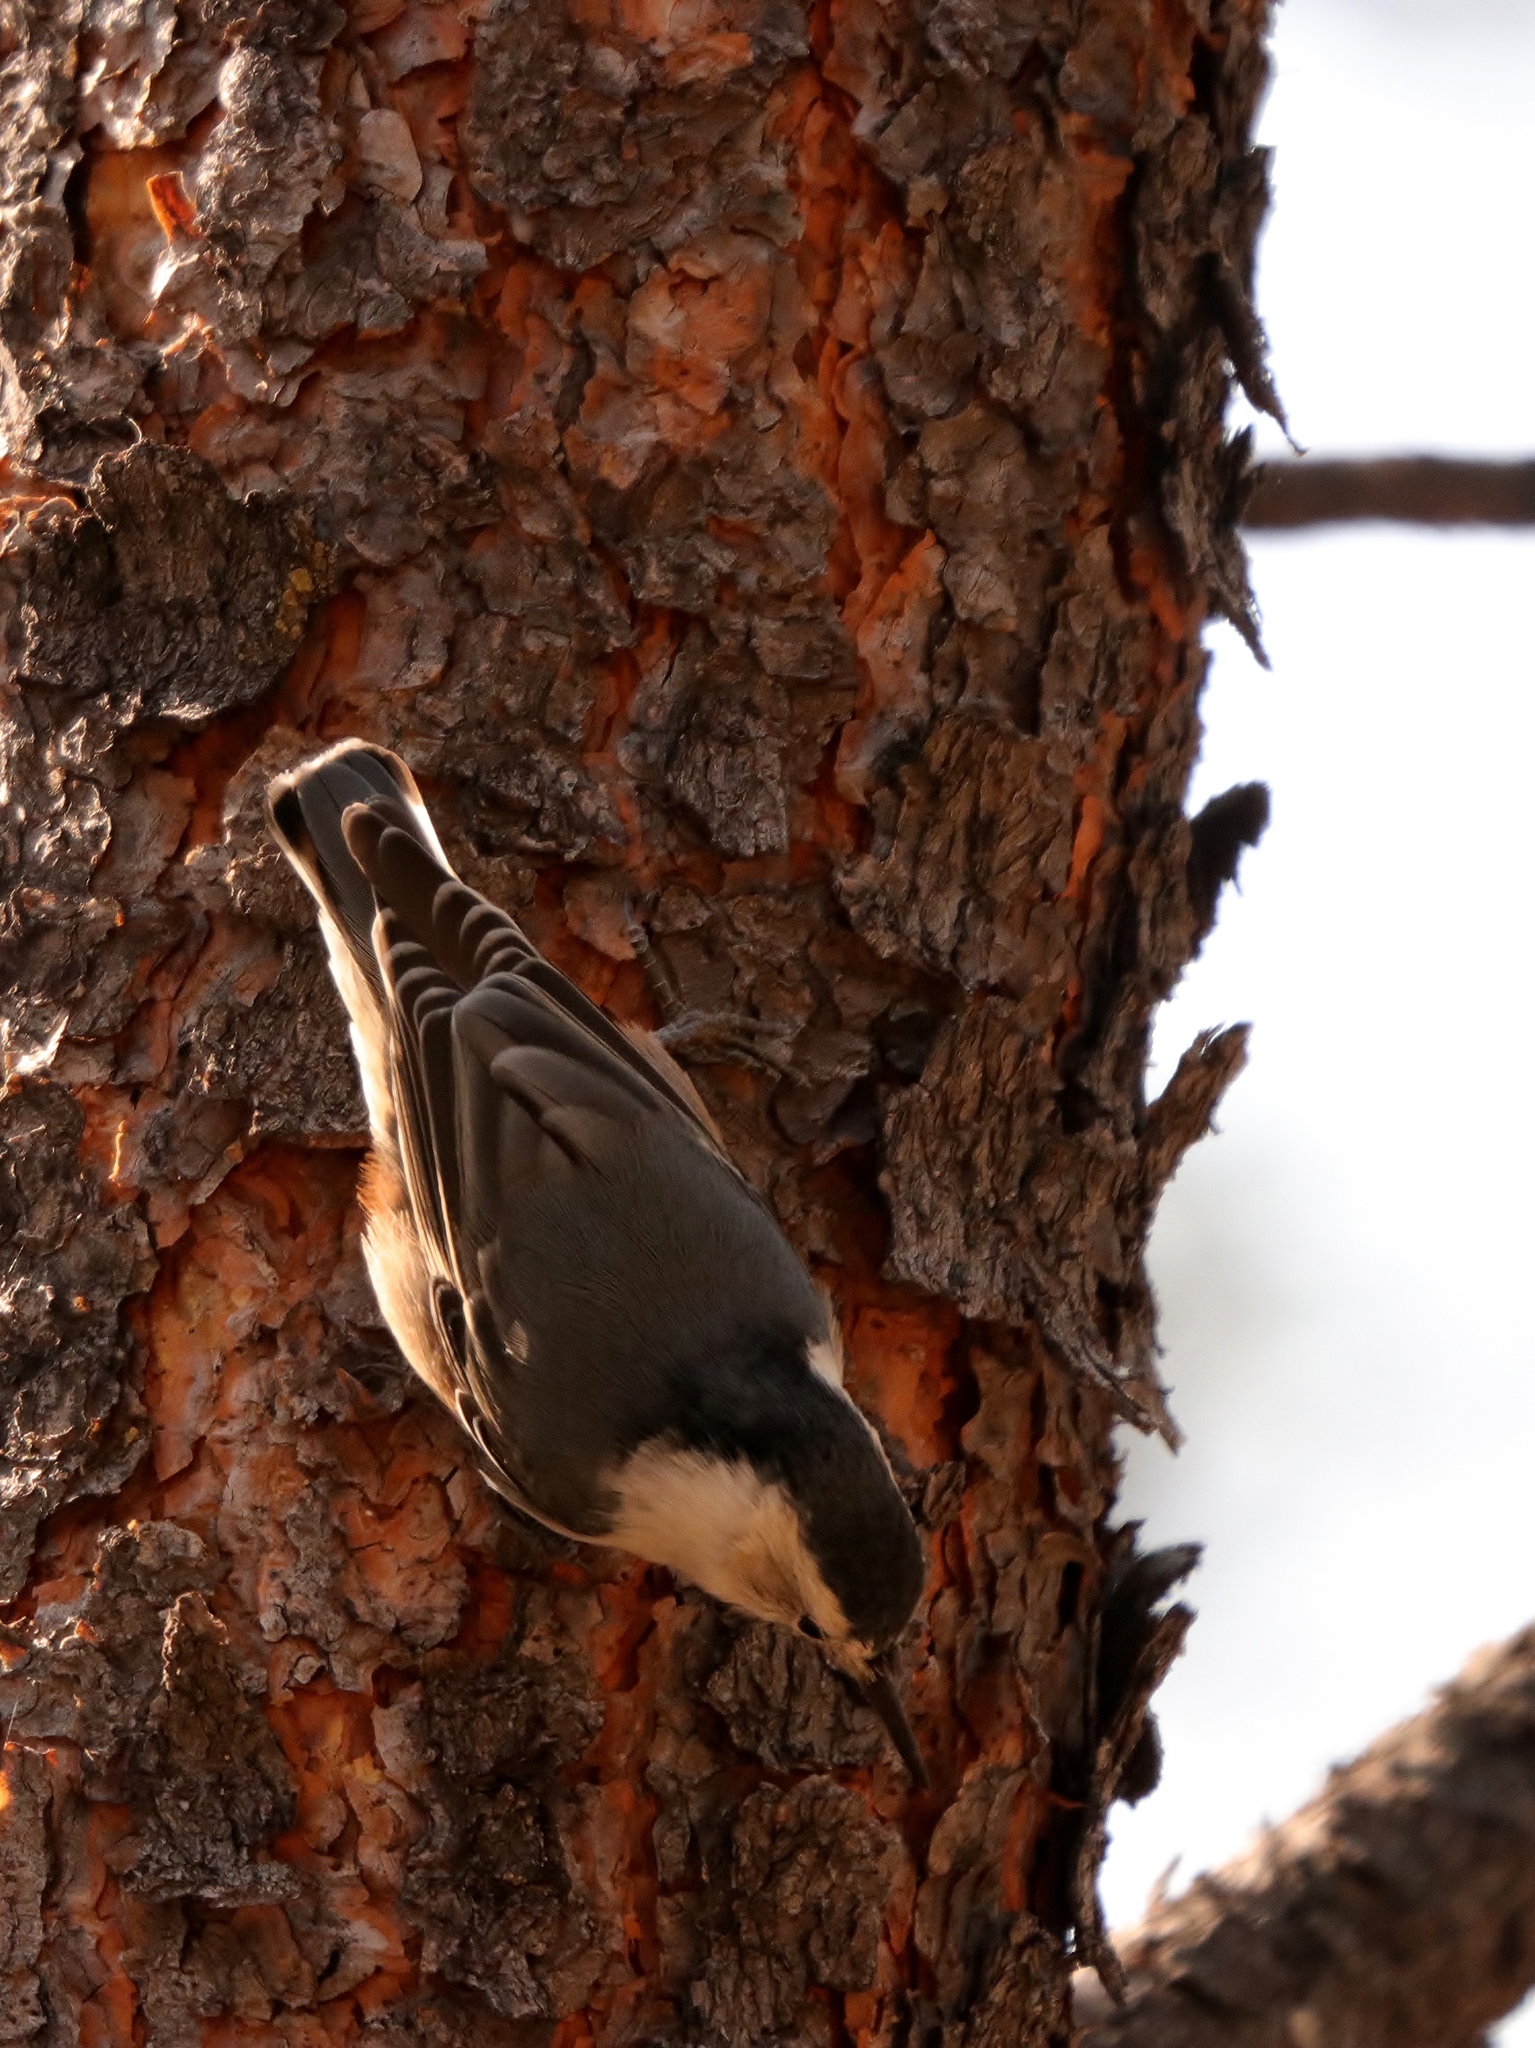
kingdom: Animalia
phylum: Chordata
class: Aves
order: Passeriformes
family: Sittidae
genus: Sitta
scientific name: Sitta carolinensis
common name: White-breasted nuthatch
